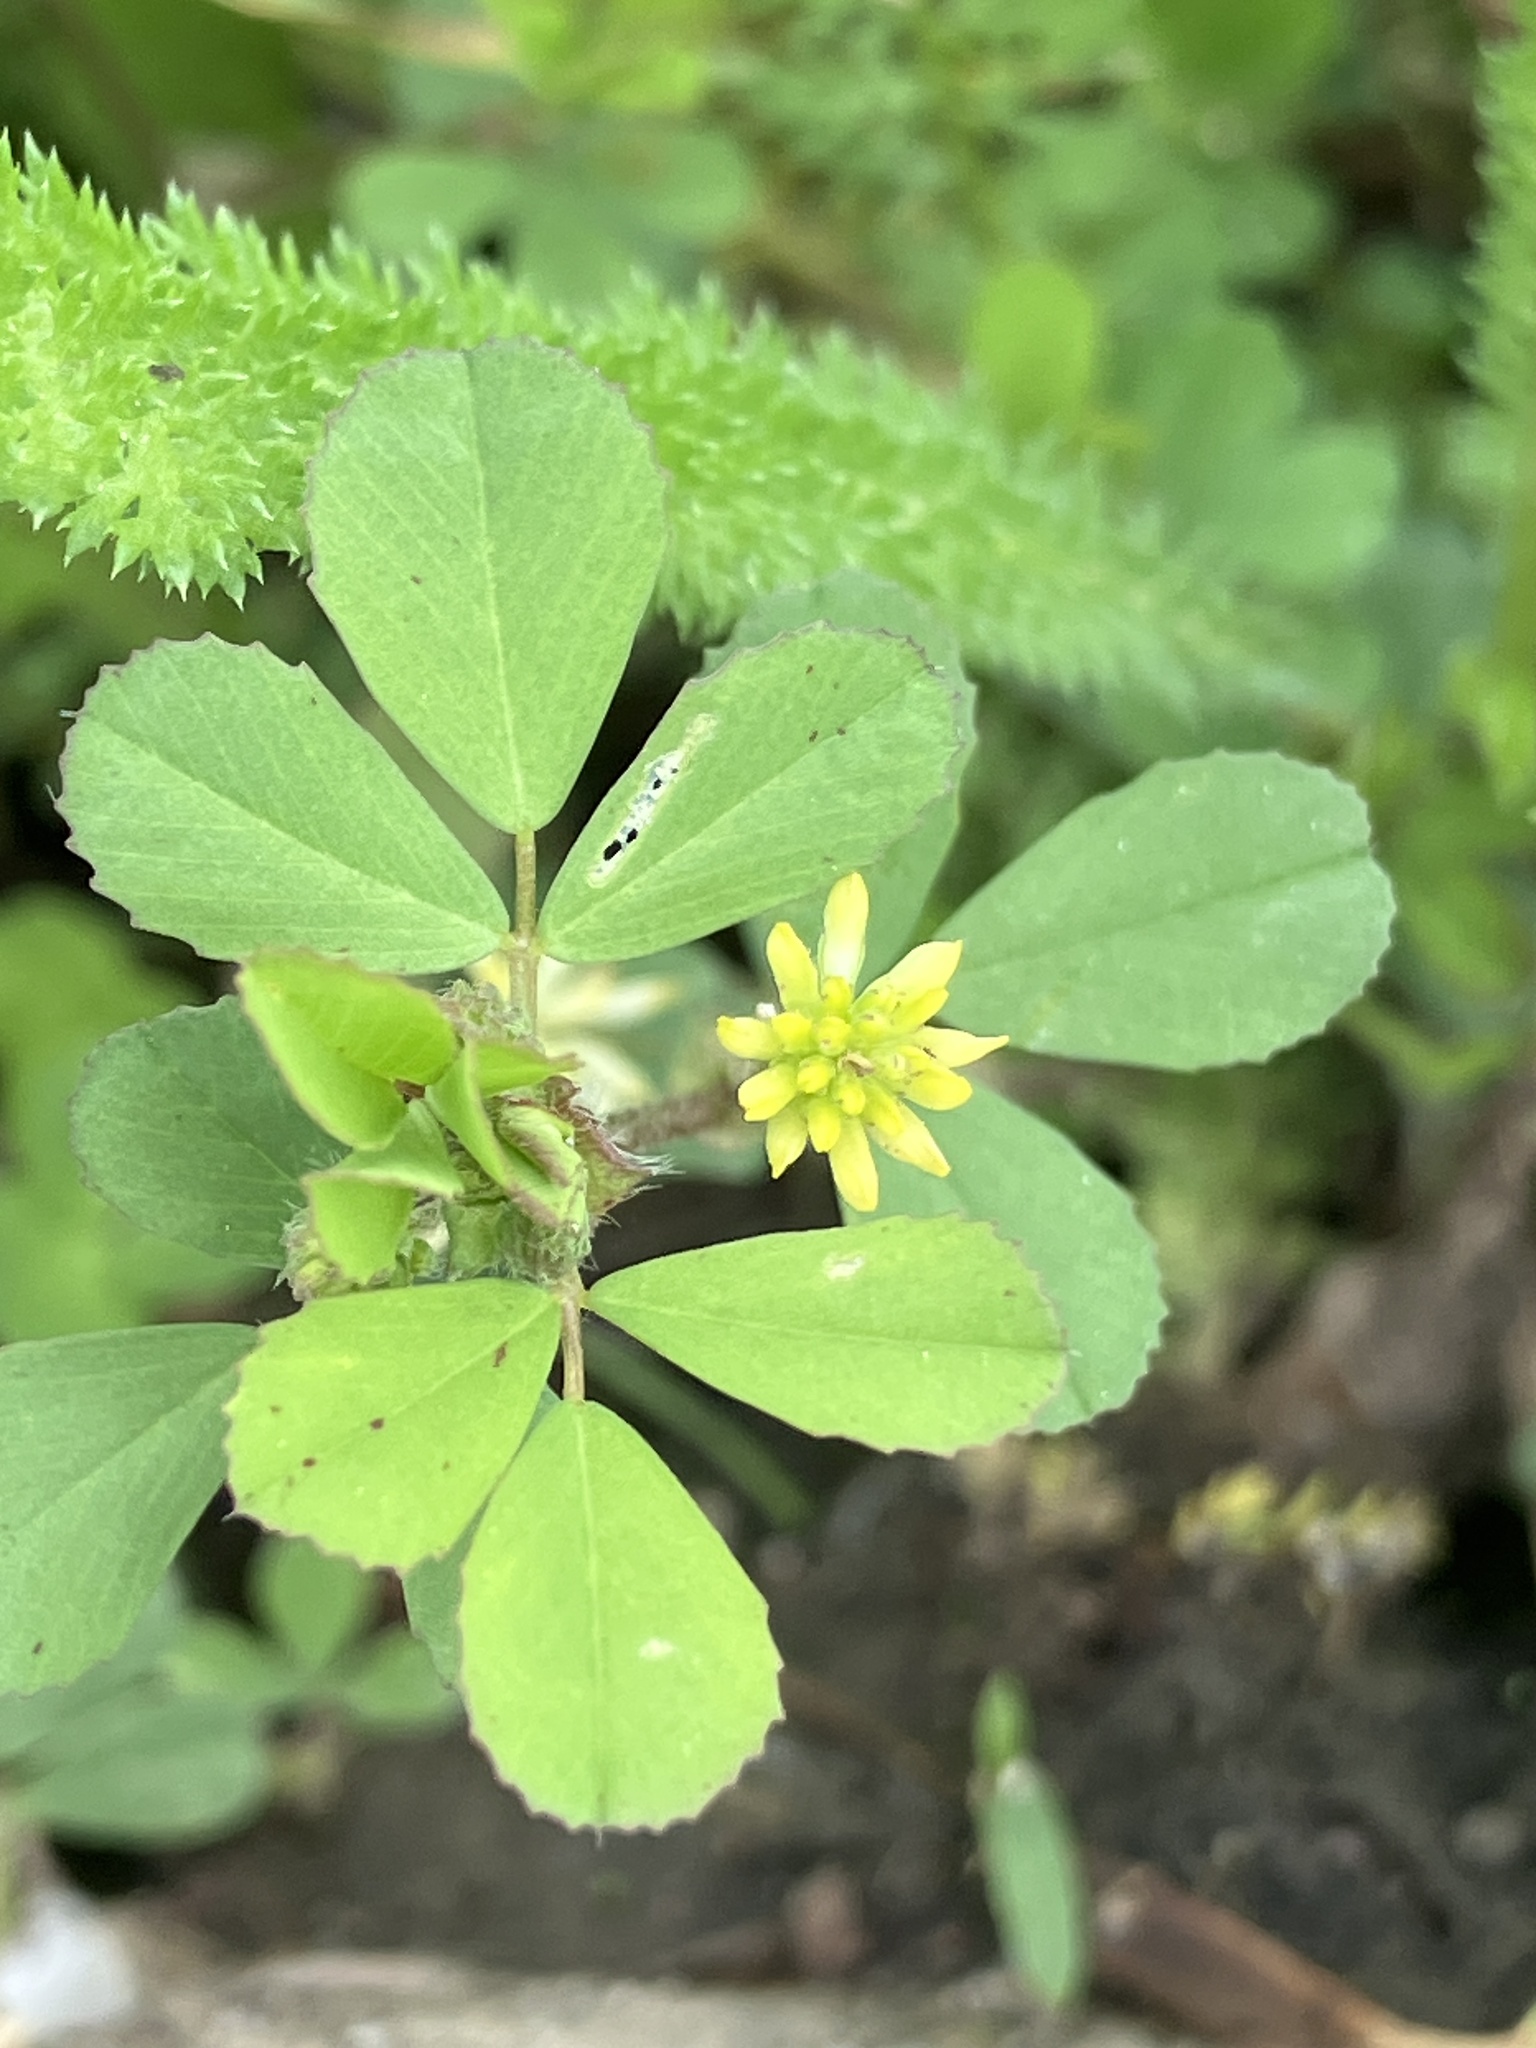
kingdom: Plantae
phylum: Tracheophyta
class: Magnoliopsida
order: Fabales
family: Fabaceae
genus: Trifolium
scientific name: Trifolium dubium
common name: Suckling clover
